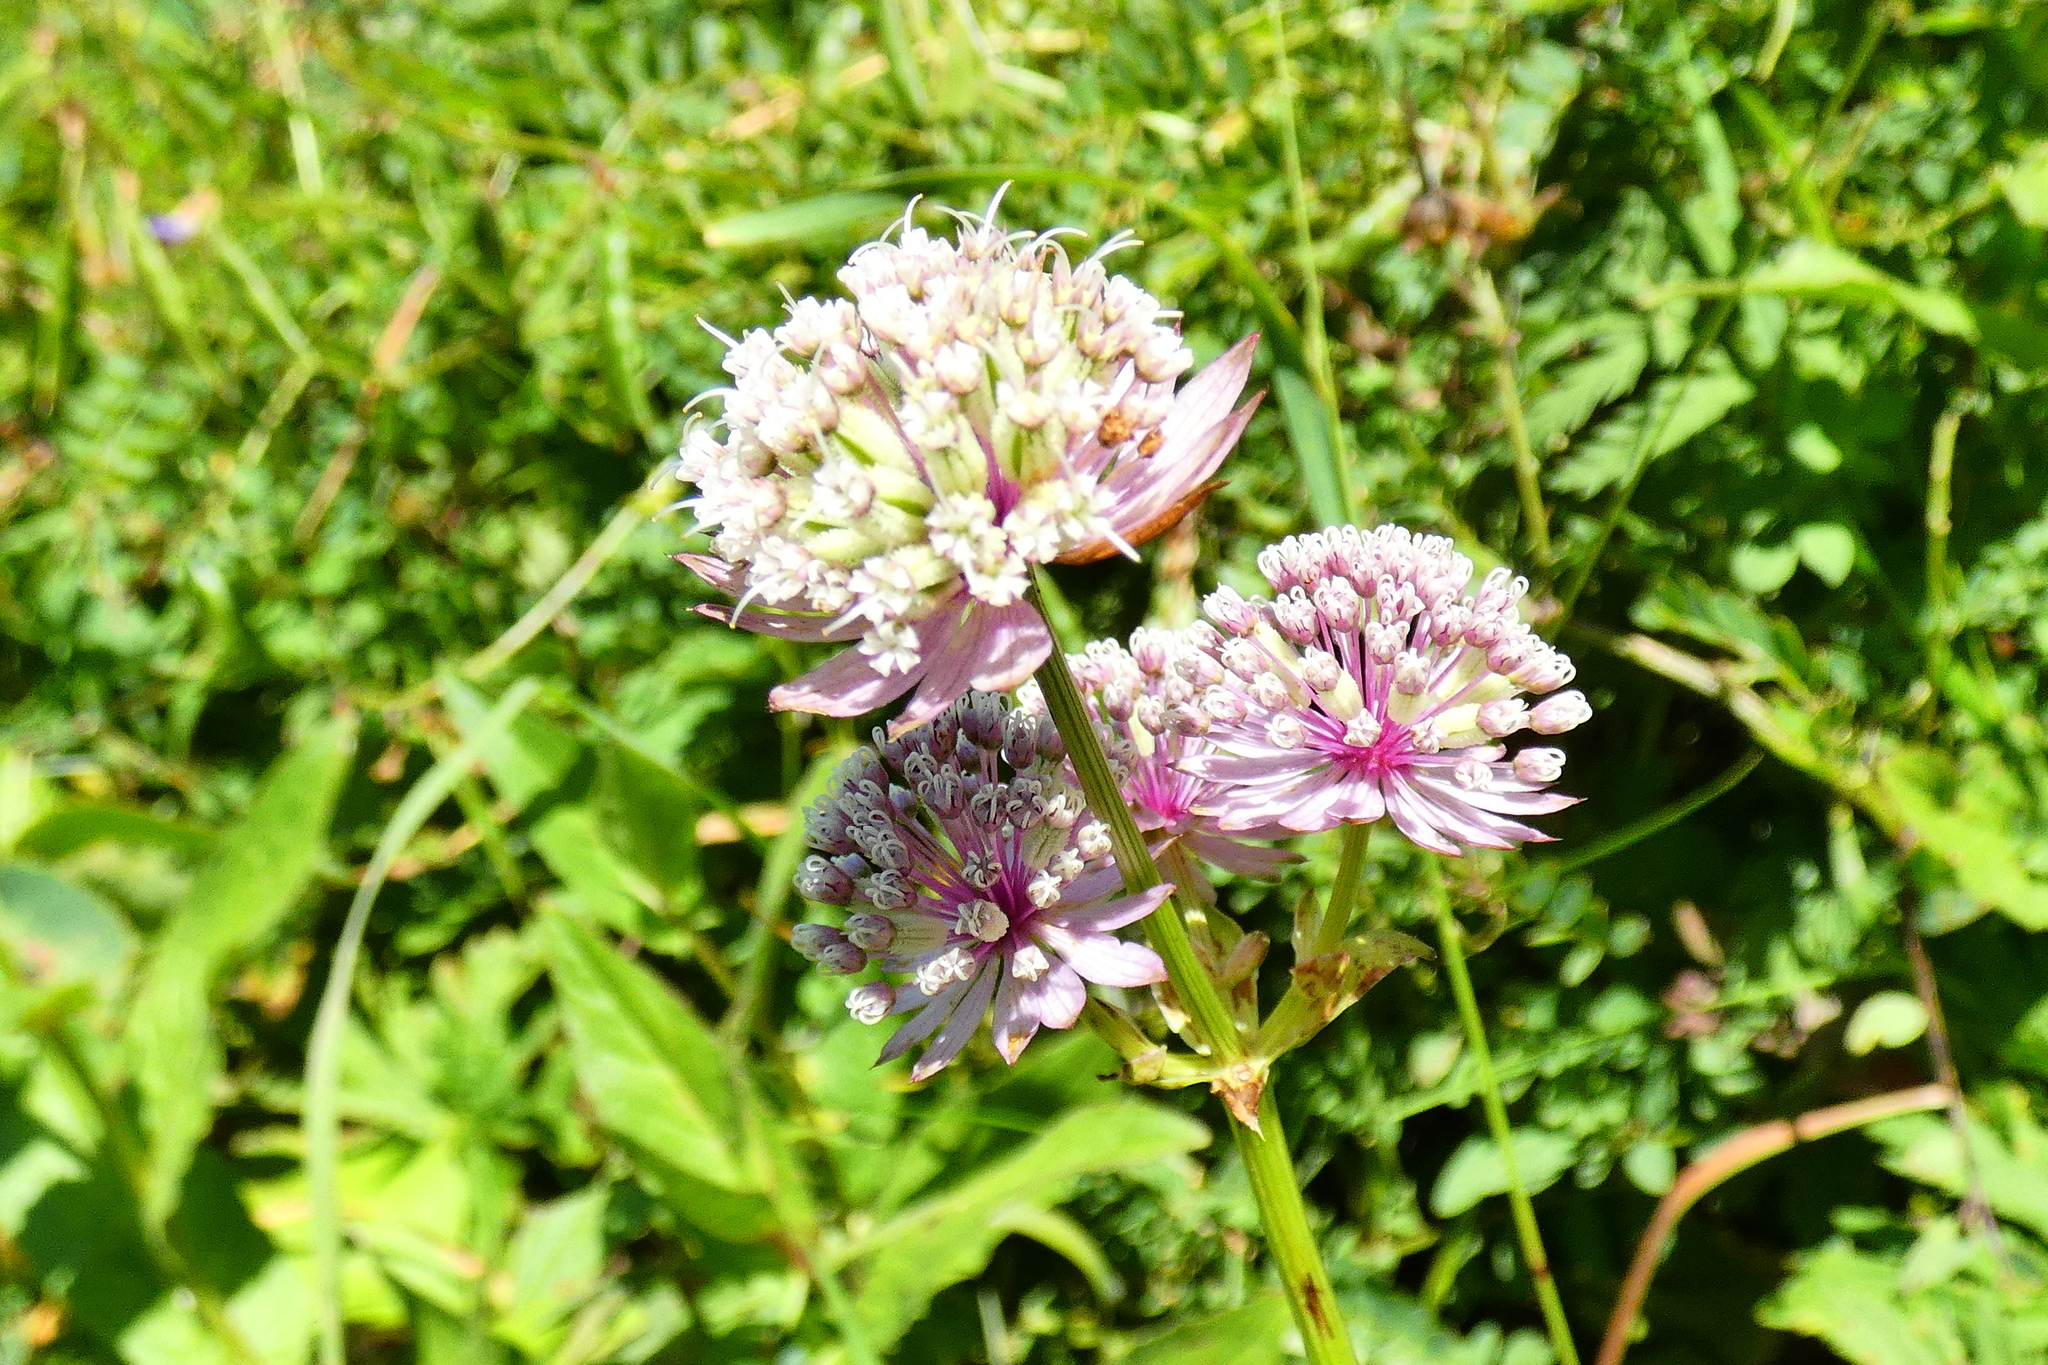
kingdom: Plantae
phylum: Tracheophyta
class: Magnoliopsida
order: Apiales
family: Apiaceae
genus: Astrantia
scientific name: Astrantia major
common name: Greater masterwort
